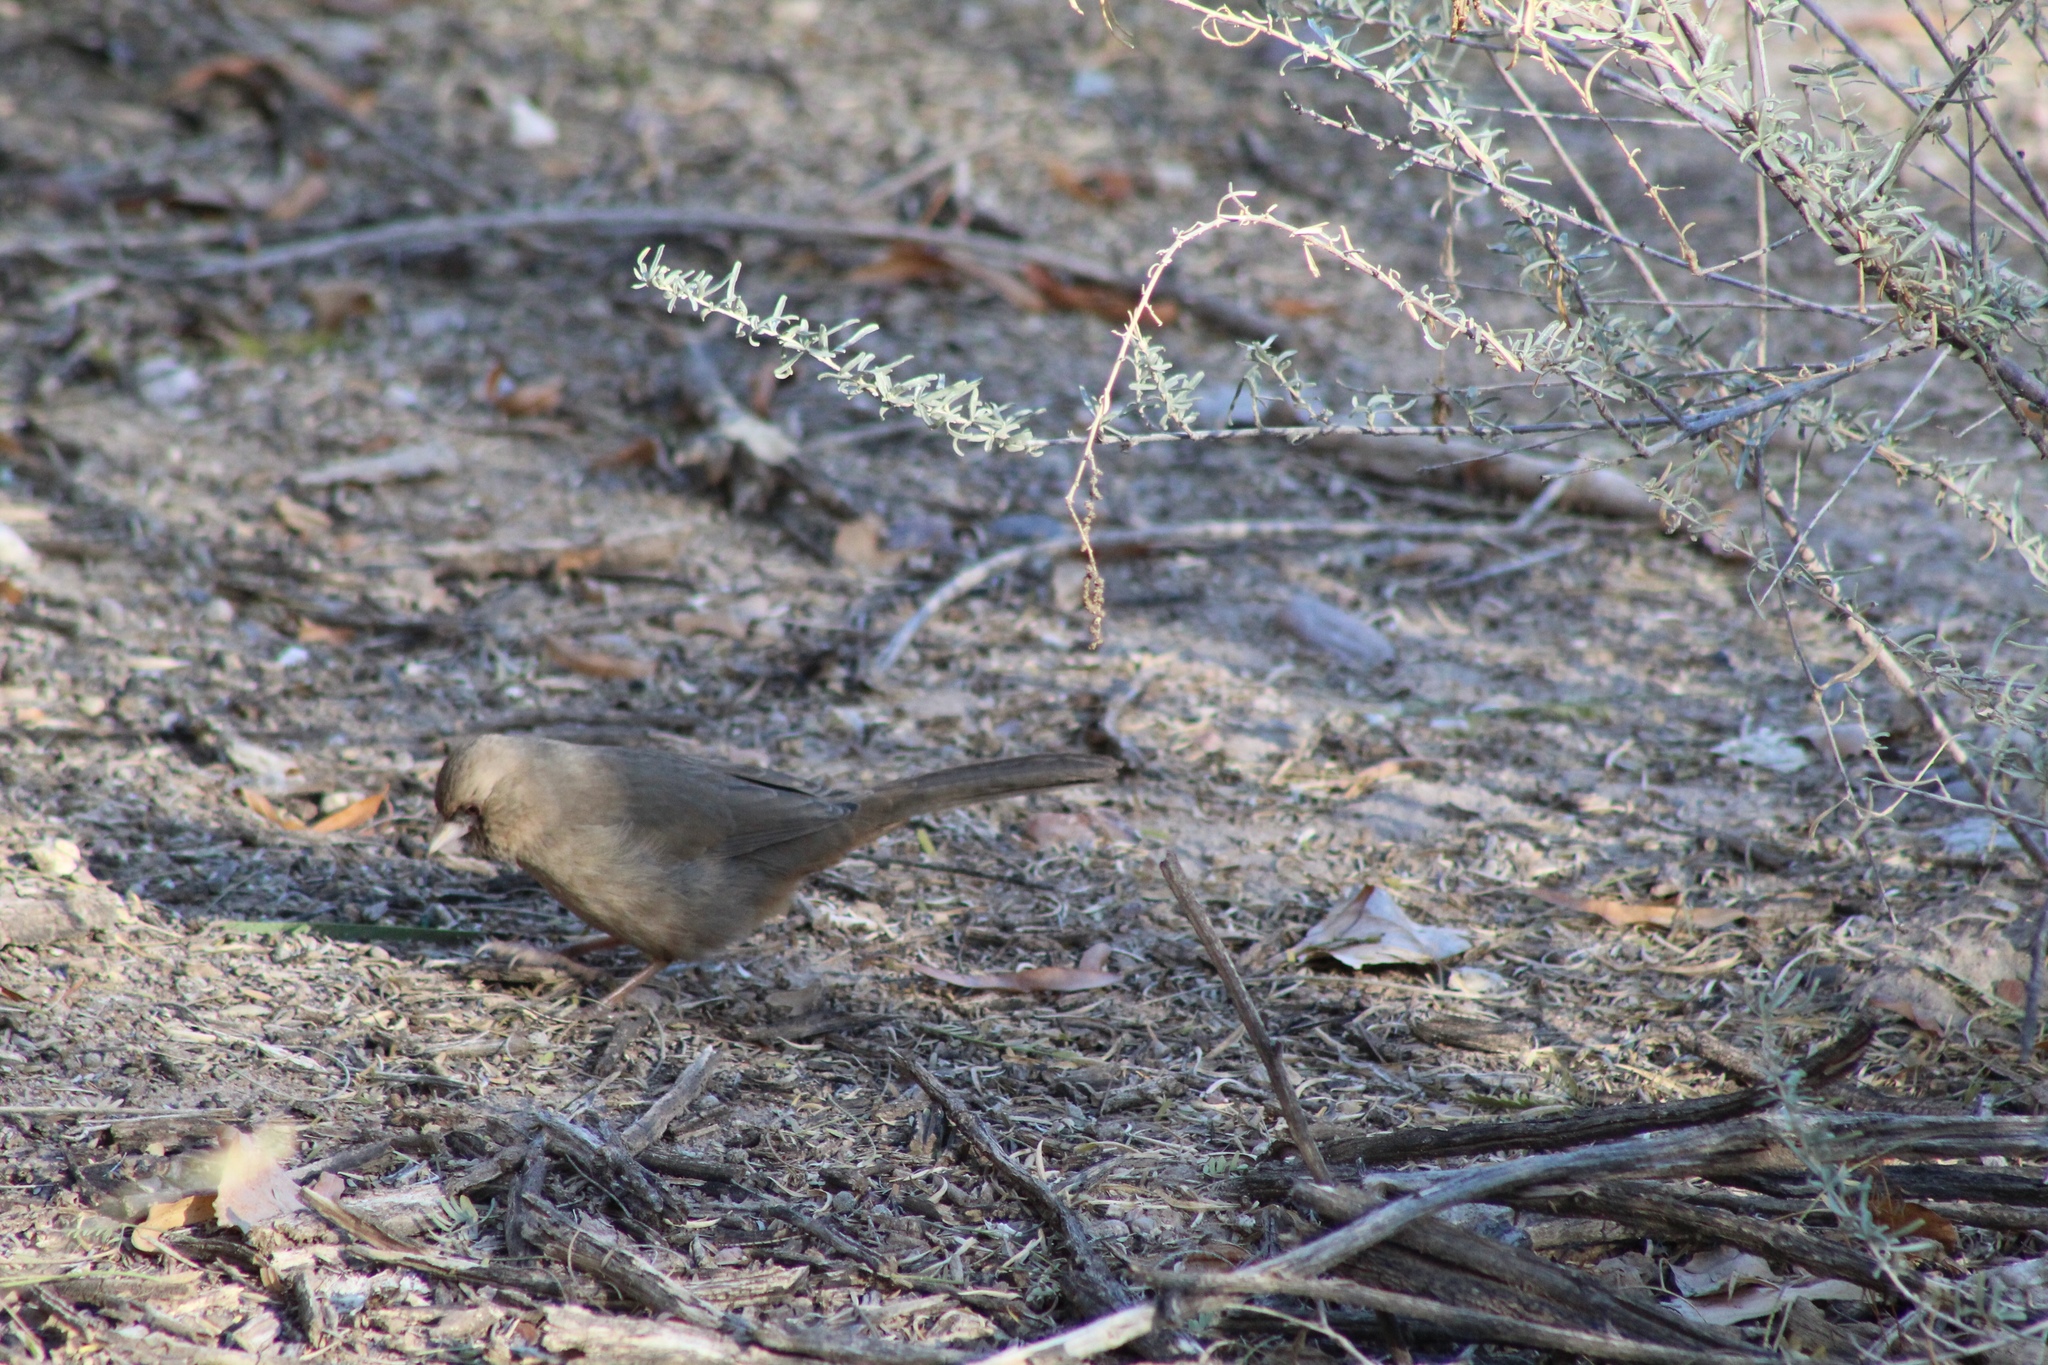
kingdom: Animalia
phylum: Chordata
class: Aves
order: Passeriformes
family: Passerellidae
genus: Melozone
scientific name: Melozone aberti
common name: Abert's towhee
